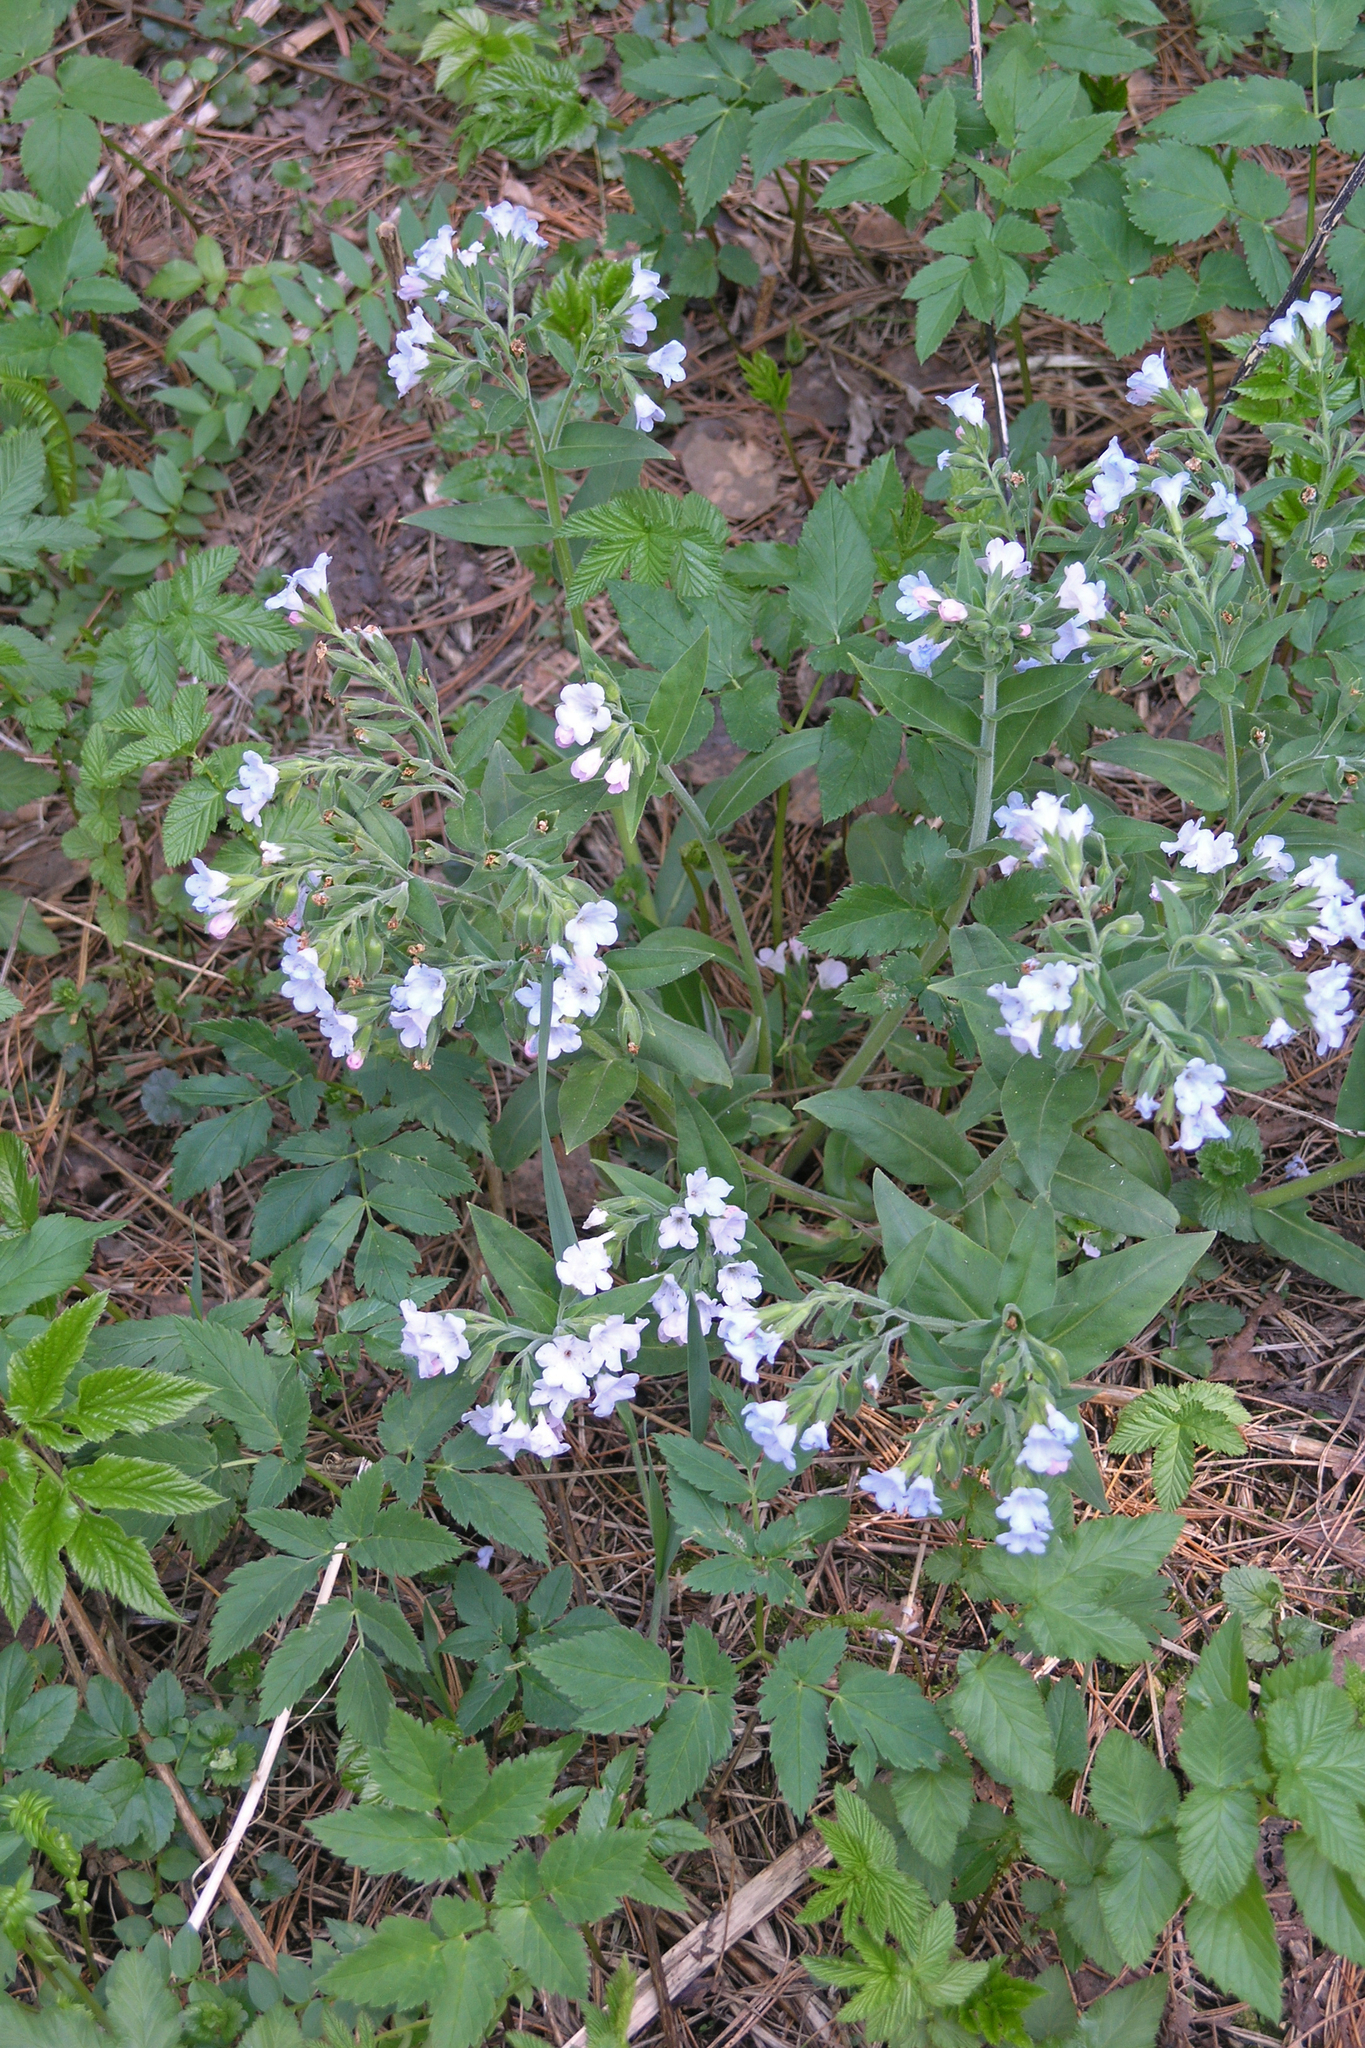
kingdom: Plantae
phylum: Tracheophyta
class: Magnoliopsida
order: Boraginales
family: Boraginaceae
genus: Pulmonaria
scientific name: Pulmonaria mollis
